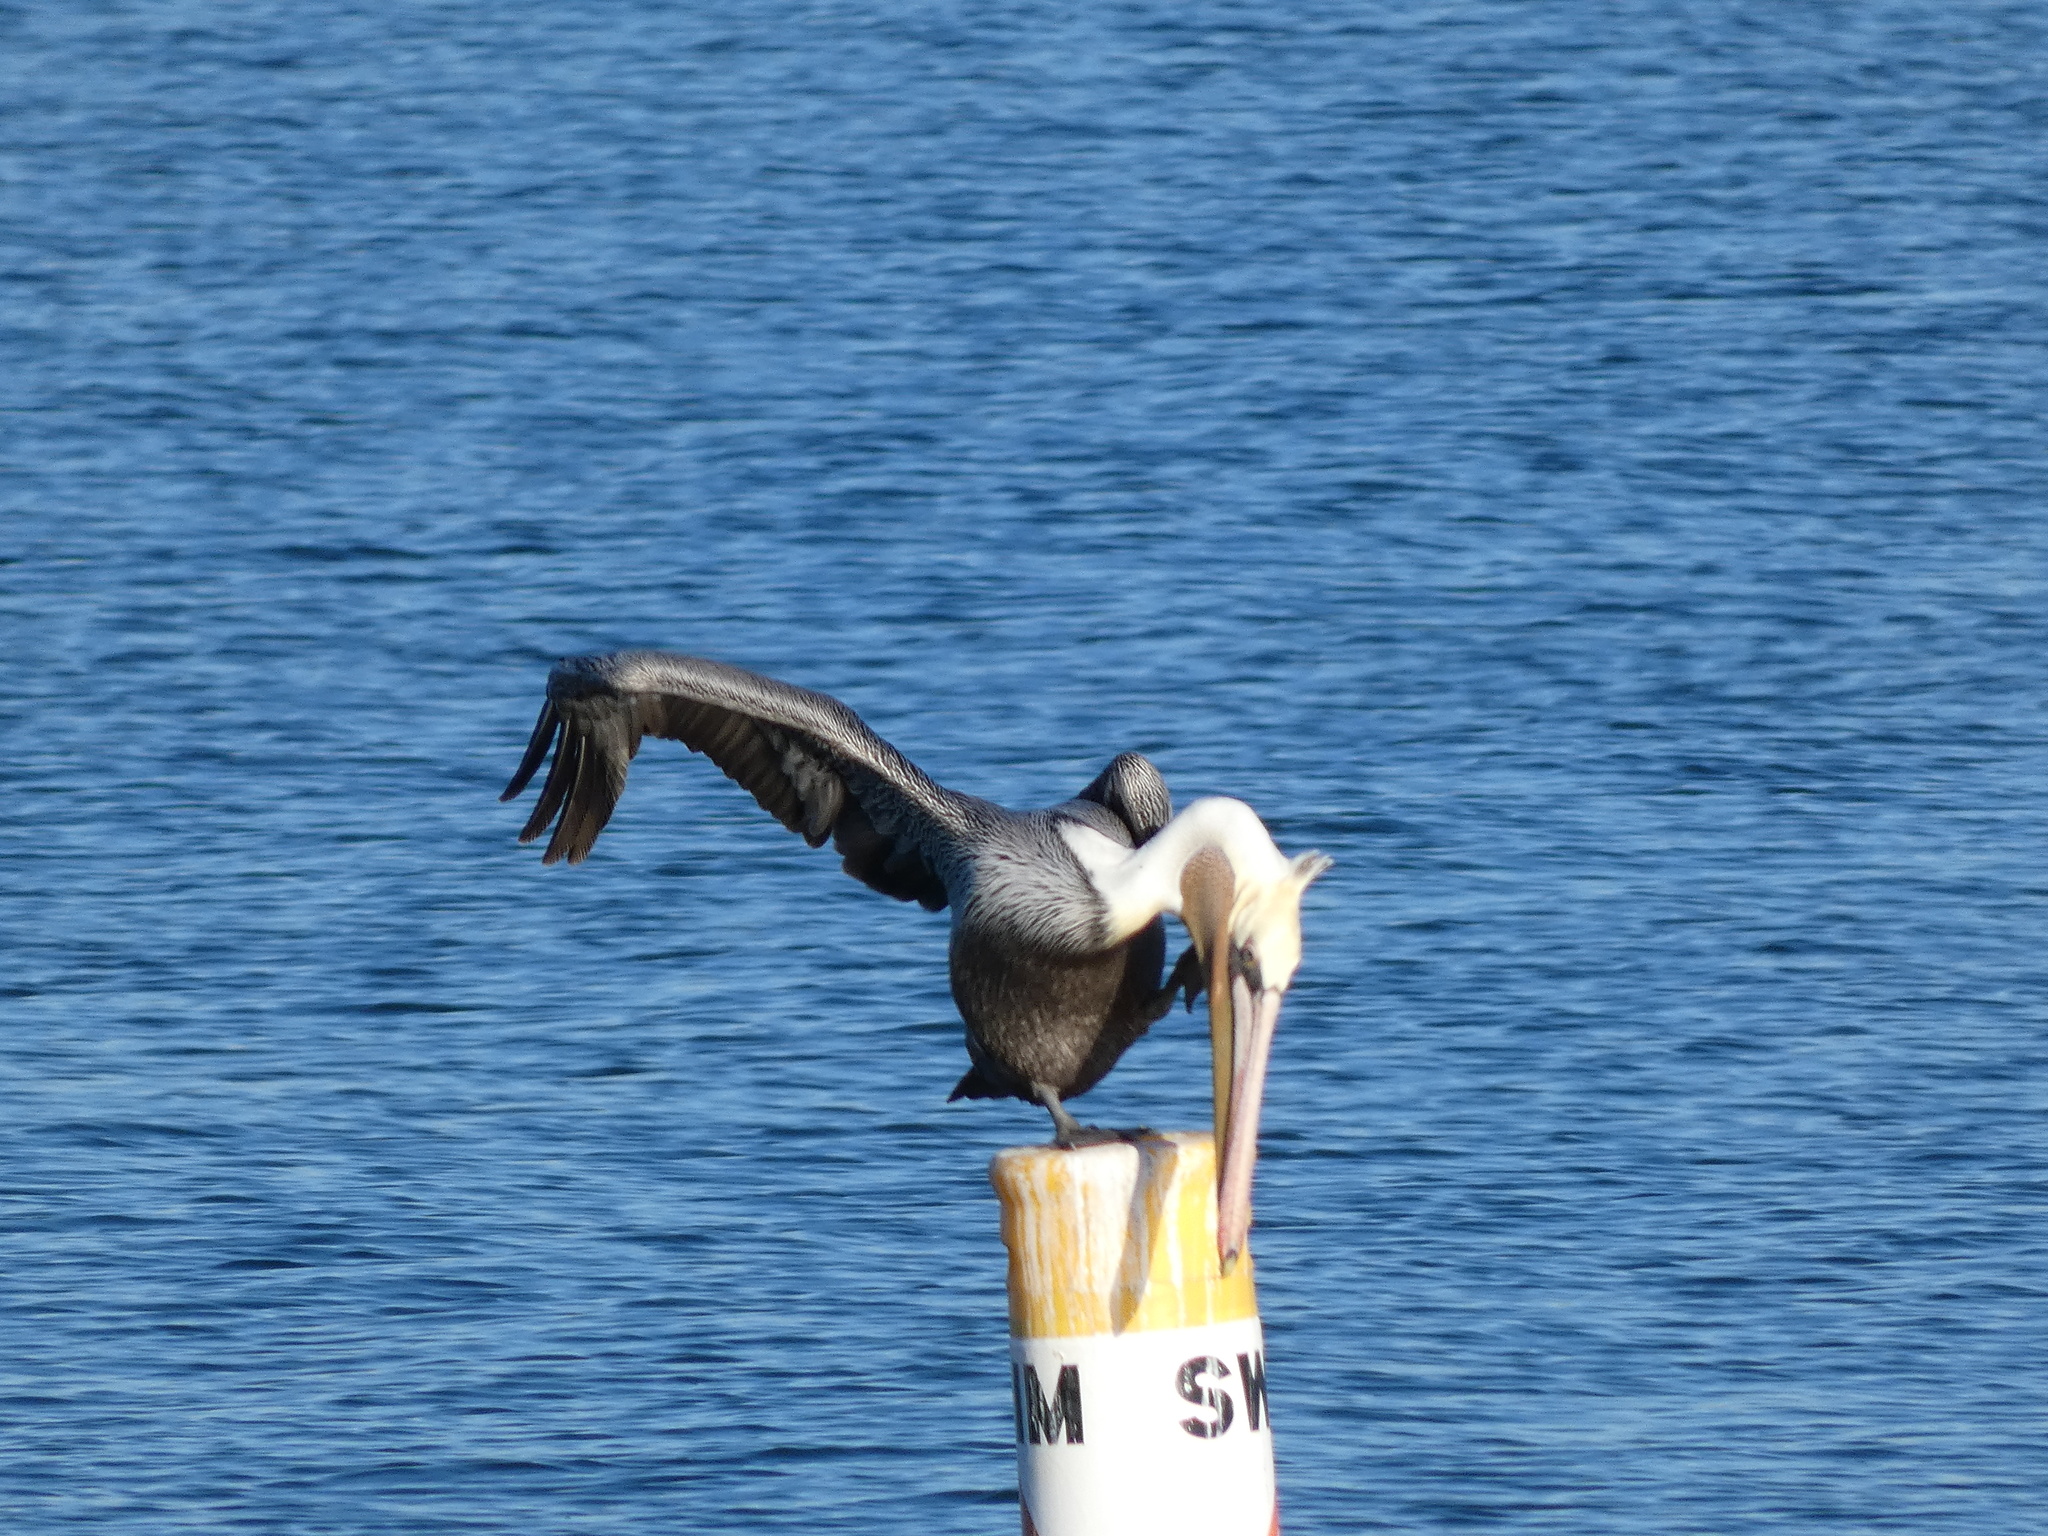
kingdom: Animalia
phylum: Chordata
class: Aves
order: Pelecaniformes
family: Pelecanidae
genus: Pelecanus
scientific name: Pelecanus occidentalis
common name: Brown pelican
